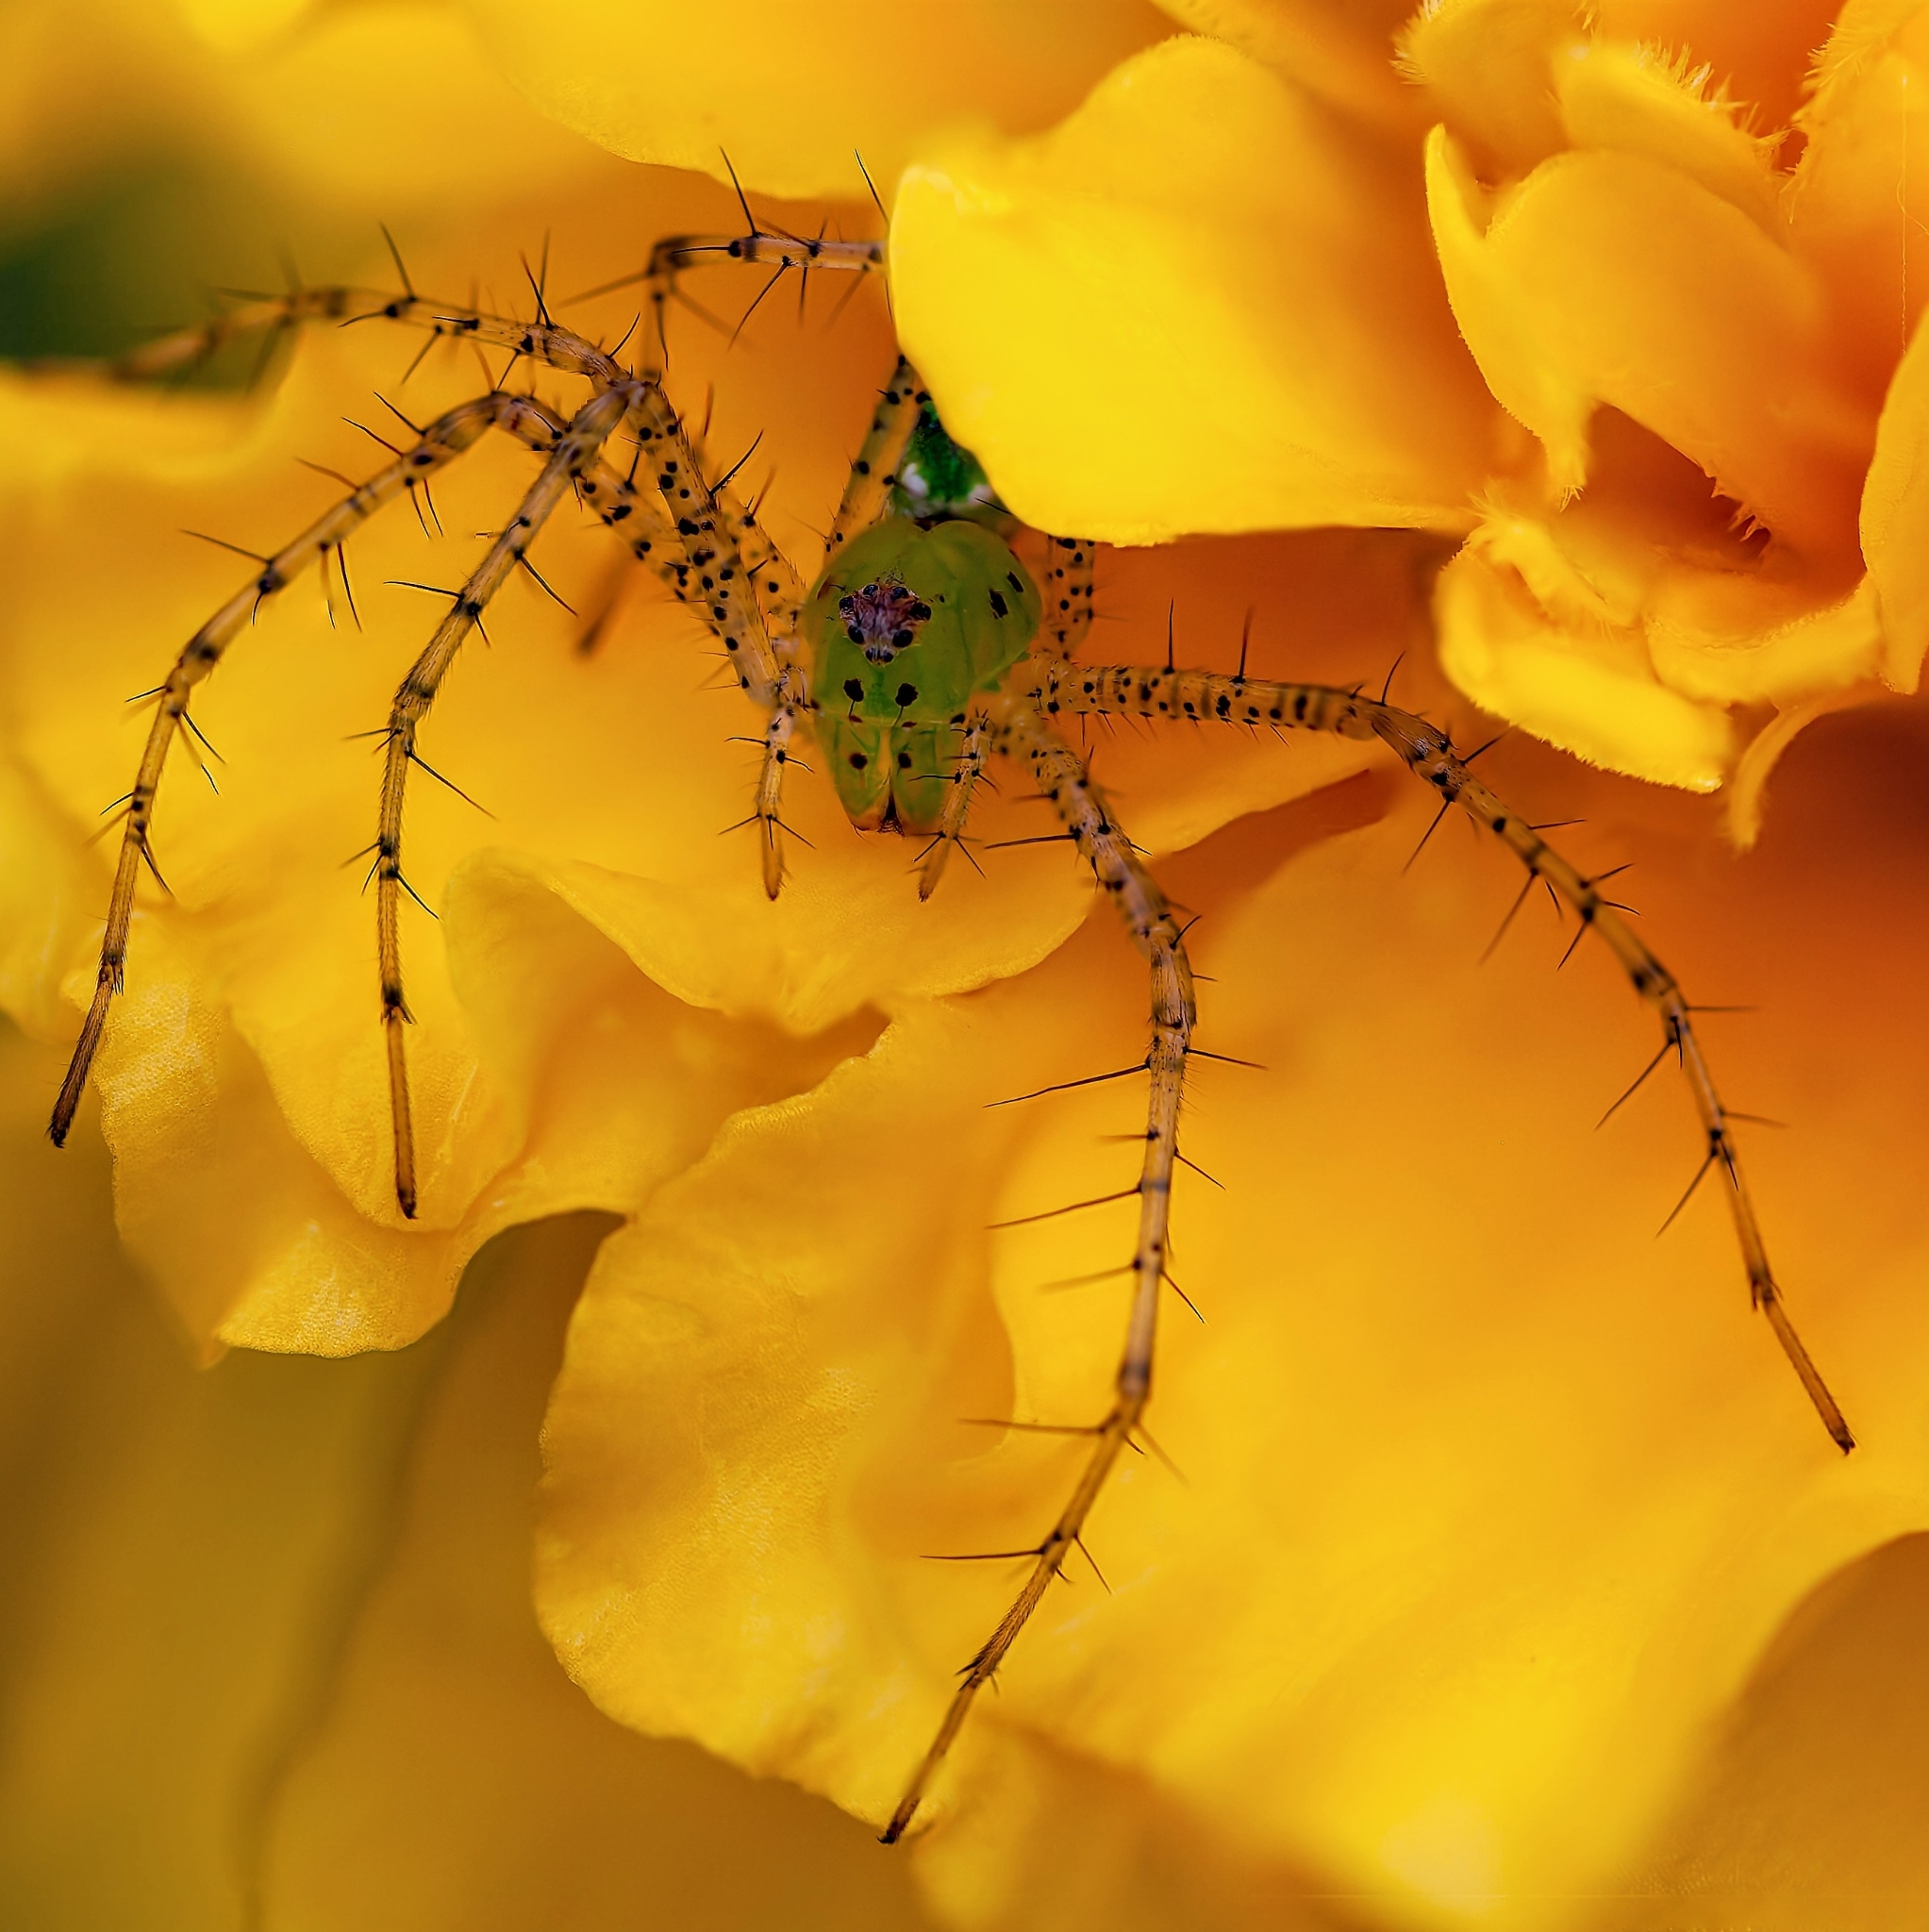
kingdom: Animalia
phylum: Arthropoda
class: Arachnida
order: Araneae
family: Oxyopidae
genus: Peucetia
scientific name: Peucetia viridans
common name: Lynx spiders
